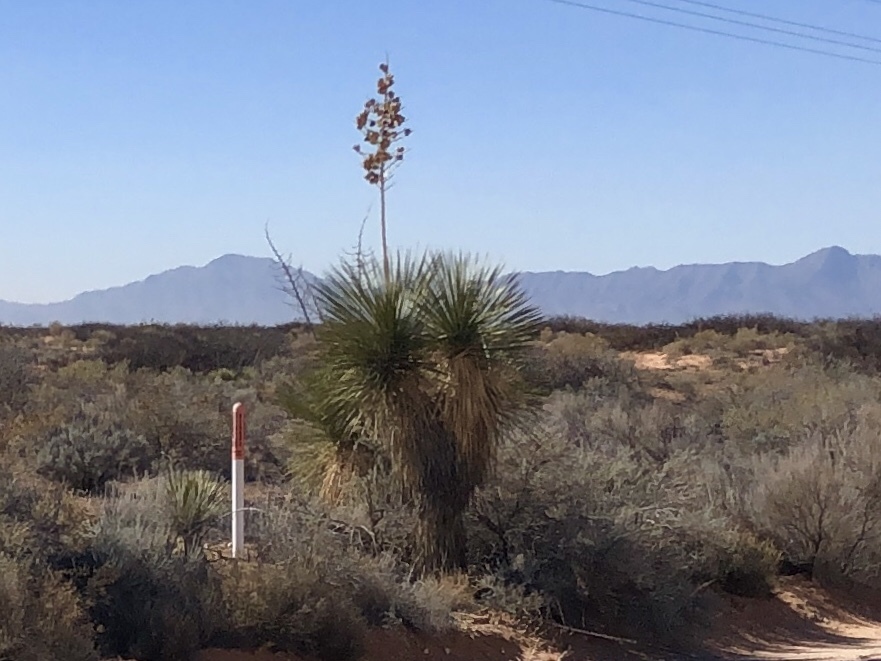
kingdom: Plantae
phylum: Tracheophyta
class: Liliopsida
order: Asparagales
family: Asparagaceae
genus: Yucca
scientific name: Yucca elata
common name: Palmella
